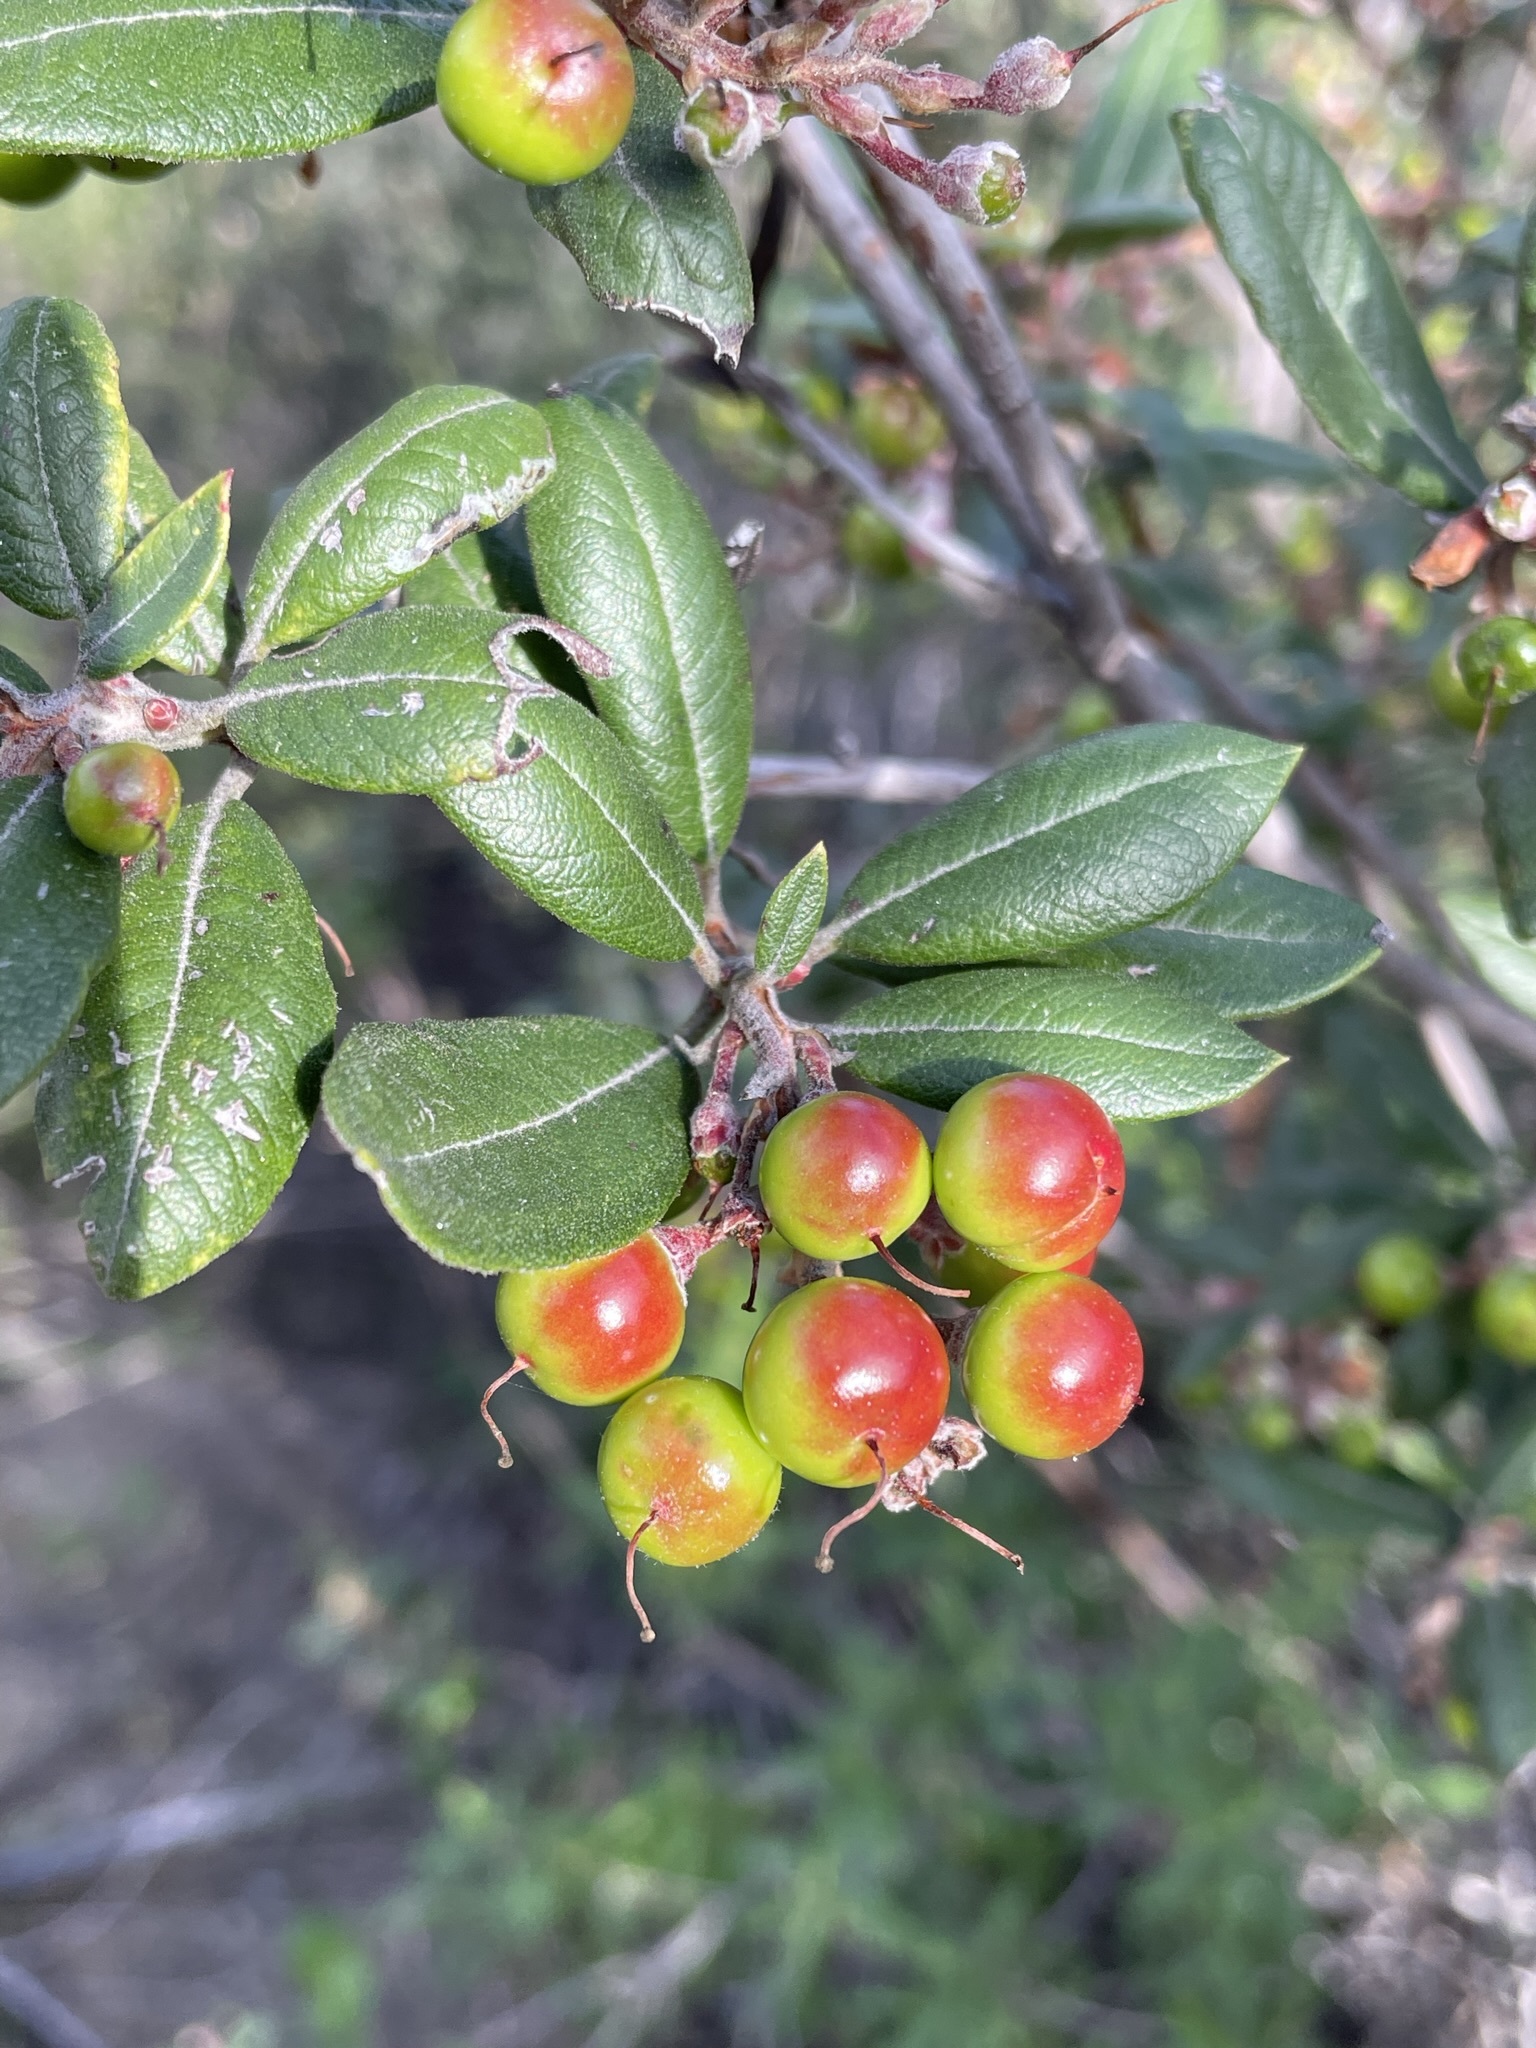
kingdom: Plantae
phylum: Tracheophyta
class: Magnoliopsida
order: Ericales
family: Ericaceae
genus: Arctostaphylos
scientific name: Arctostaphylos bicolor
